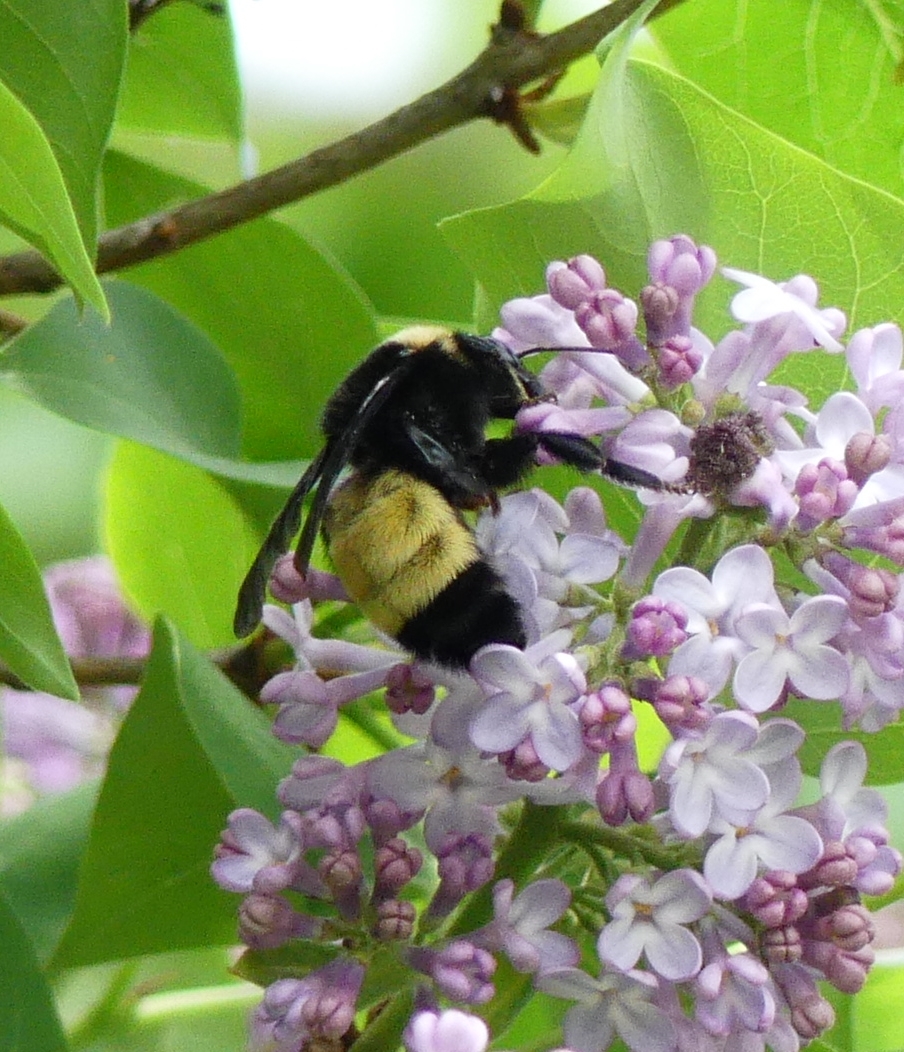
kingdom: Animalia
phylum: Arthropoda
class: Insecta
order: Hymenoptera
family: Apidae
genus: Bombus
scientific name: Bombus pensylvanicus
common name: Bumble bee
